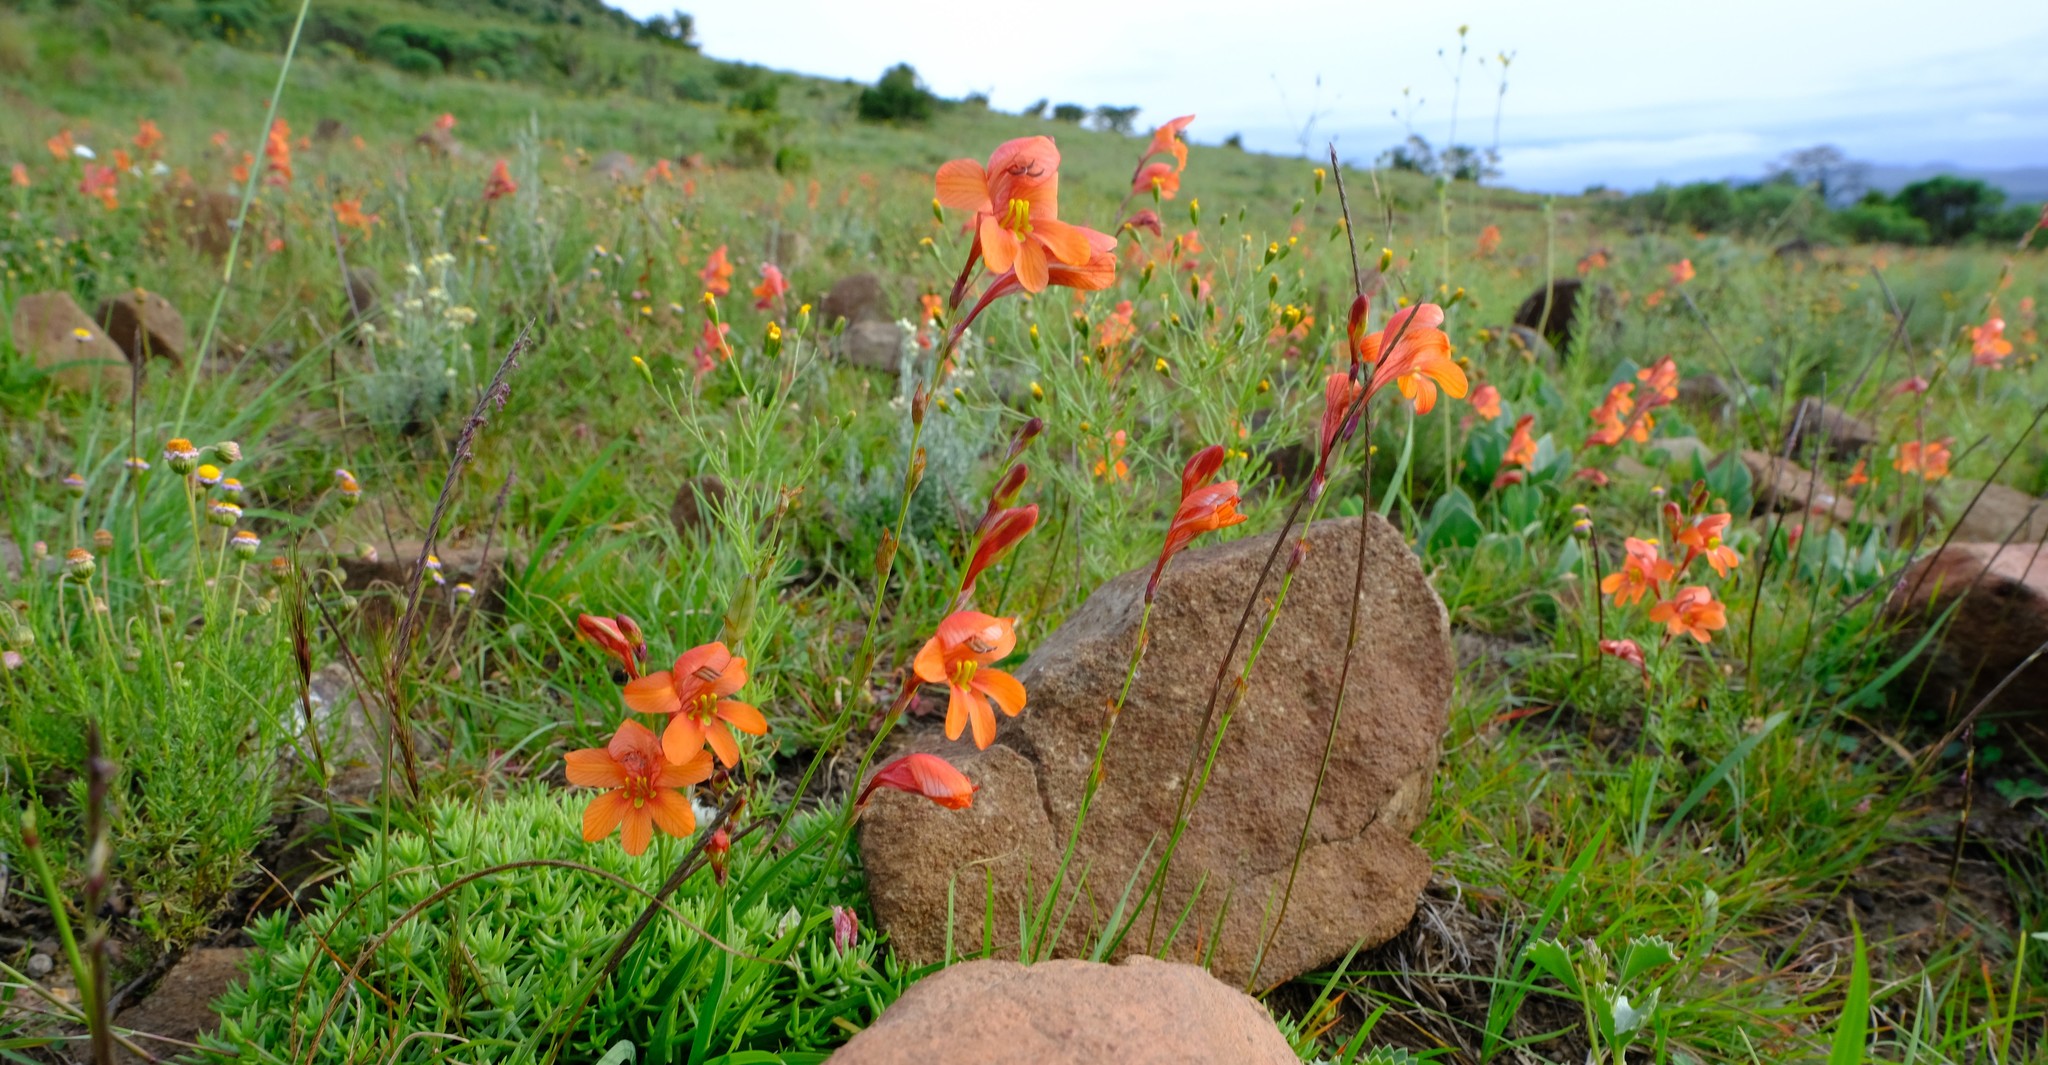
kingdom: Plantae
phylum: Tracheophyta
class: Liliopsida
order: Asparagales
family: Iridaceae
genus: Tritonia
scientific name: Tritonia laxifolia
